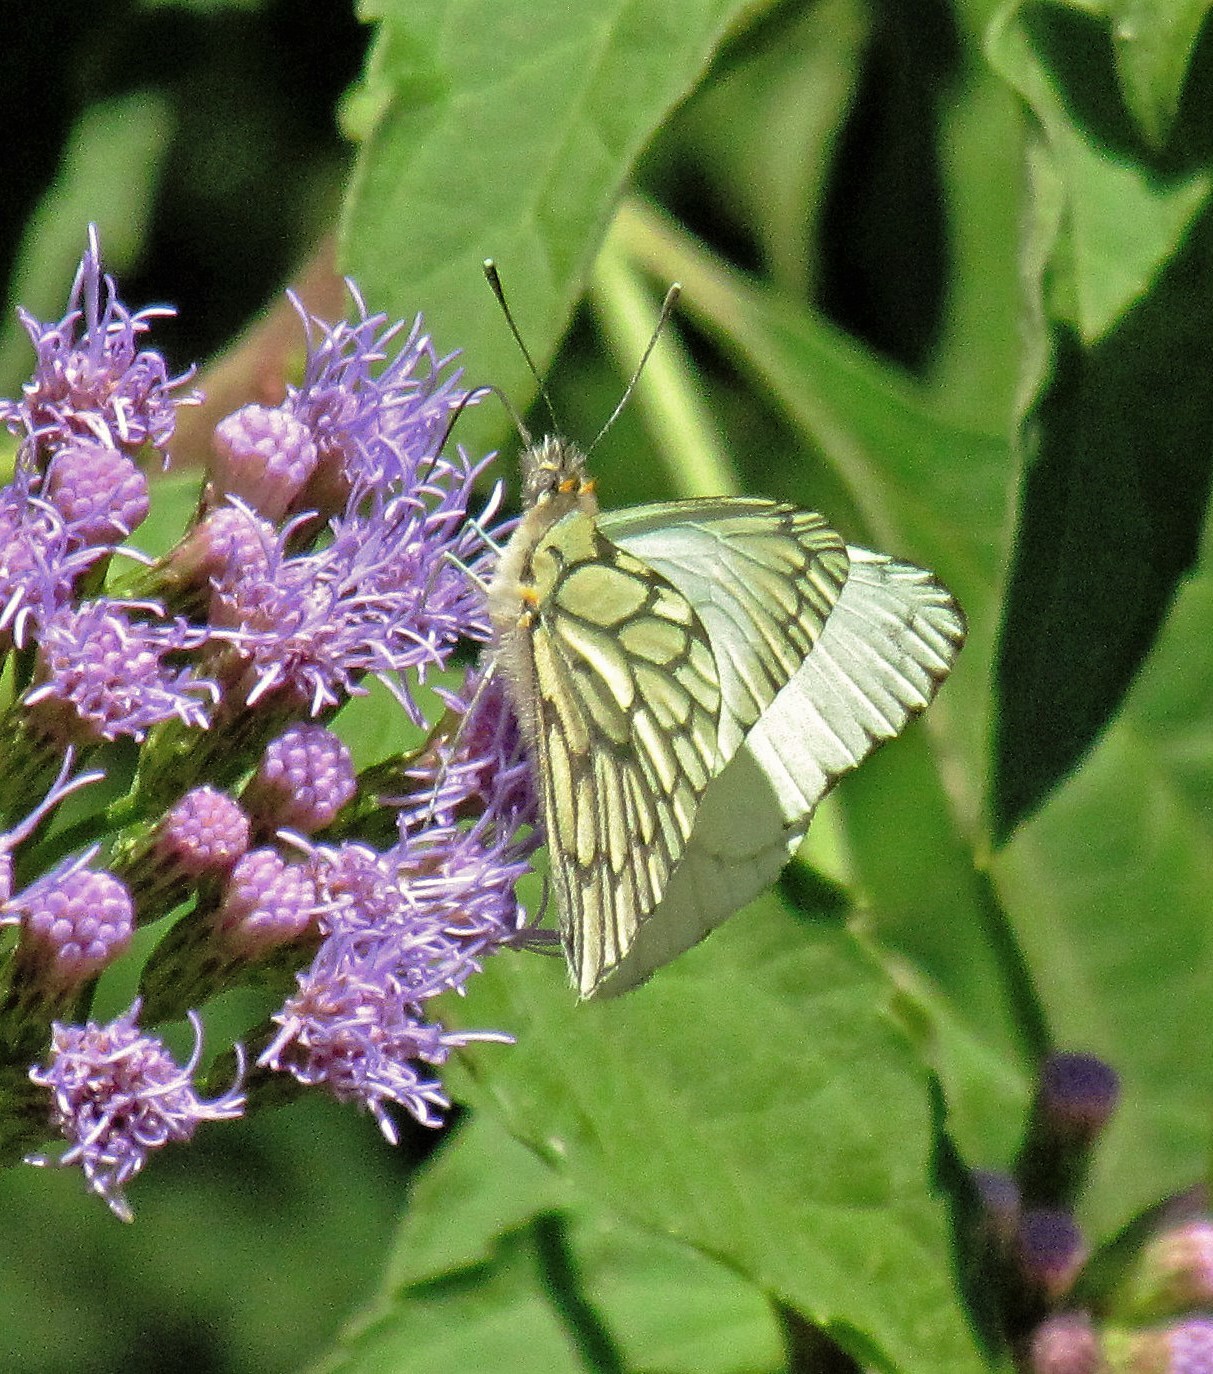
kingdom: Animalia
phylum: Arthropoda
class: Insecta
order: Lepidoptera
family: Pieridae
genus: Hesperocharis
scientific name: Hesperocharis anguitia
